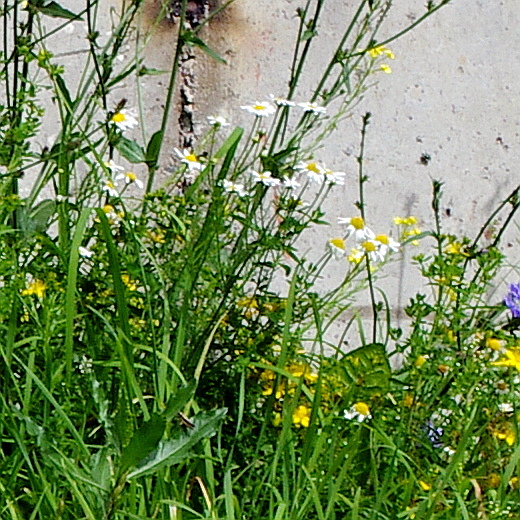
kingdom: Plantae
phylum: Tracheophyta
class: Magnoliopsida
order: Asterales
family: Asteraceae
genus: Tripleurospermum
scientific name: Tripleurospermum inodorum
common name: Scentless mayweed
